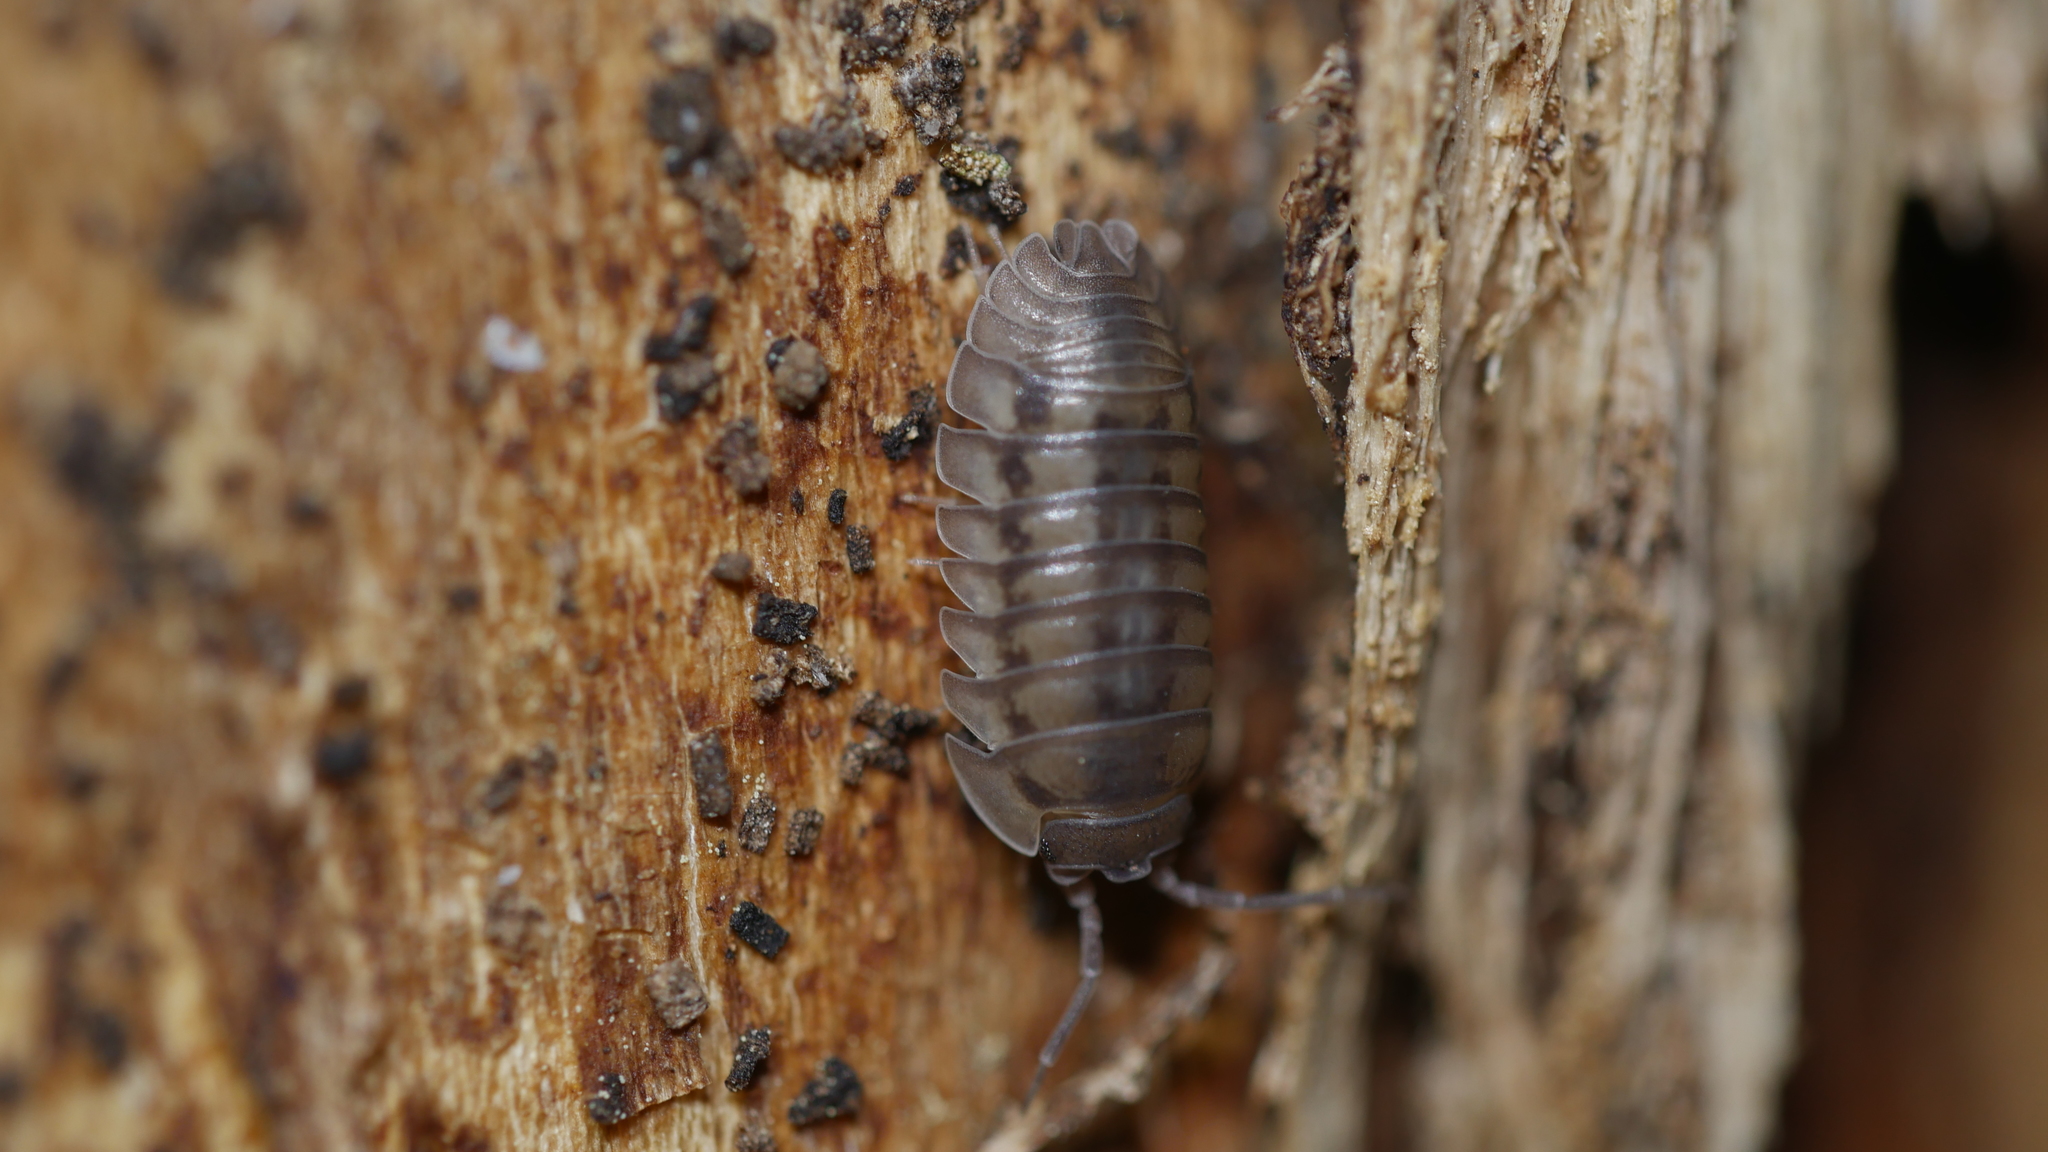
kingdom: Animalia
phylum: Arthropoda
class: Malacostraca
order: Isopoda
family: Armadillidiidae
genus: Armadillidium
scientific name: Armadillidium nasatum
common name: Isopod
